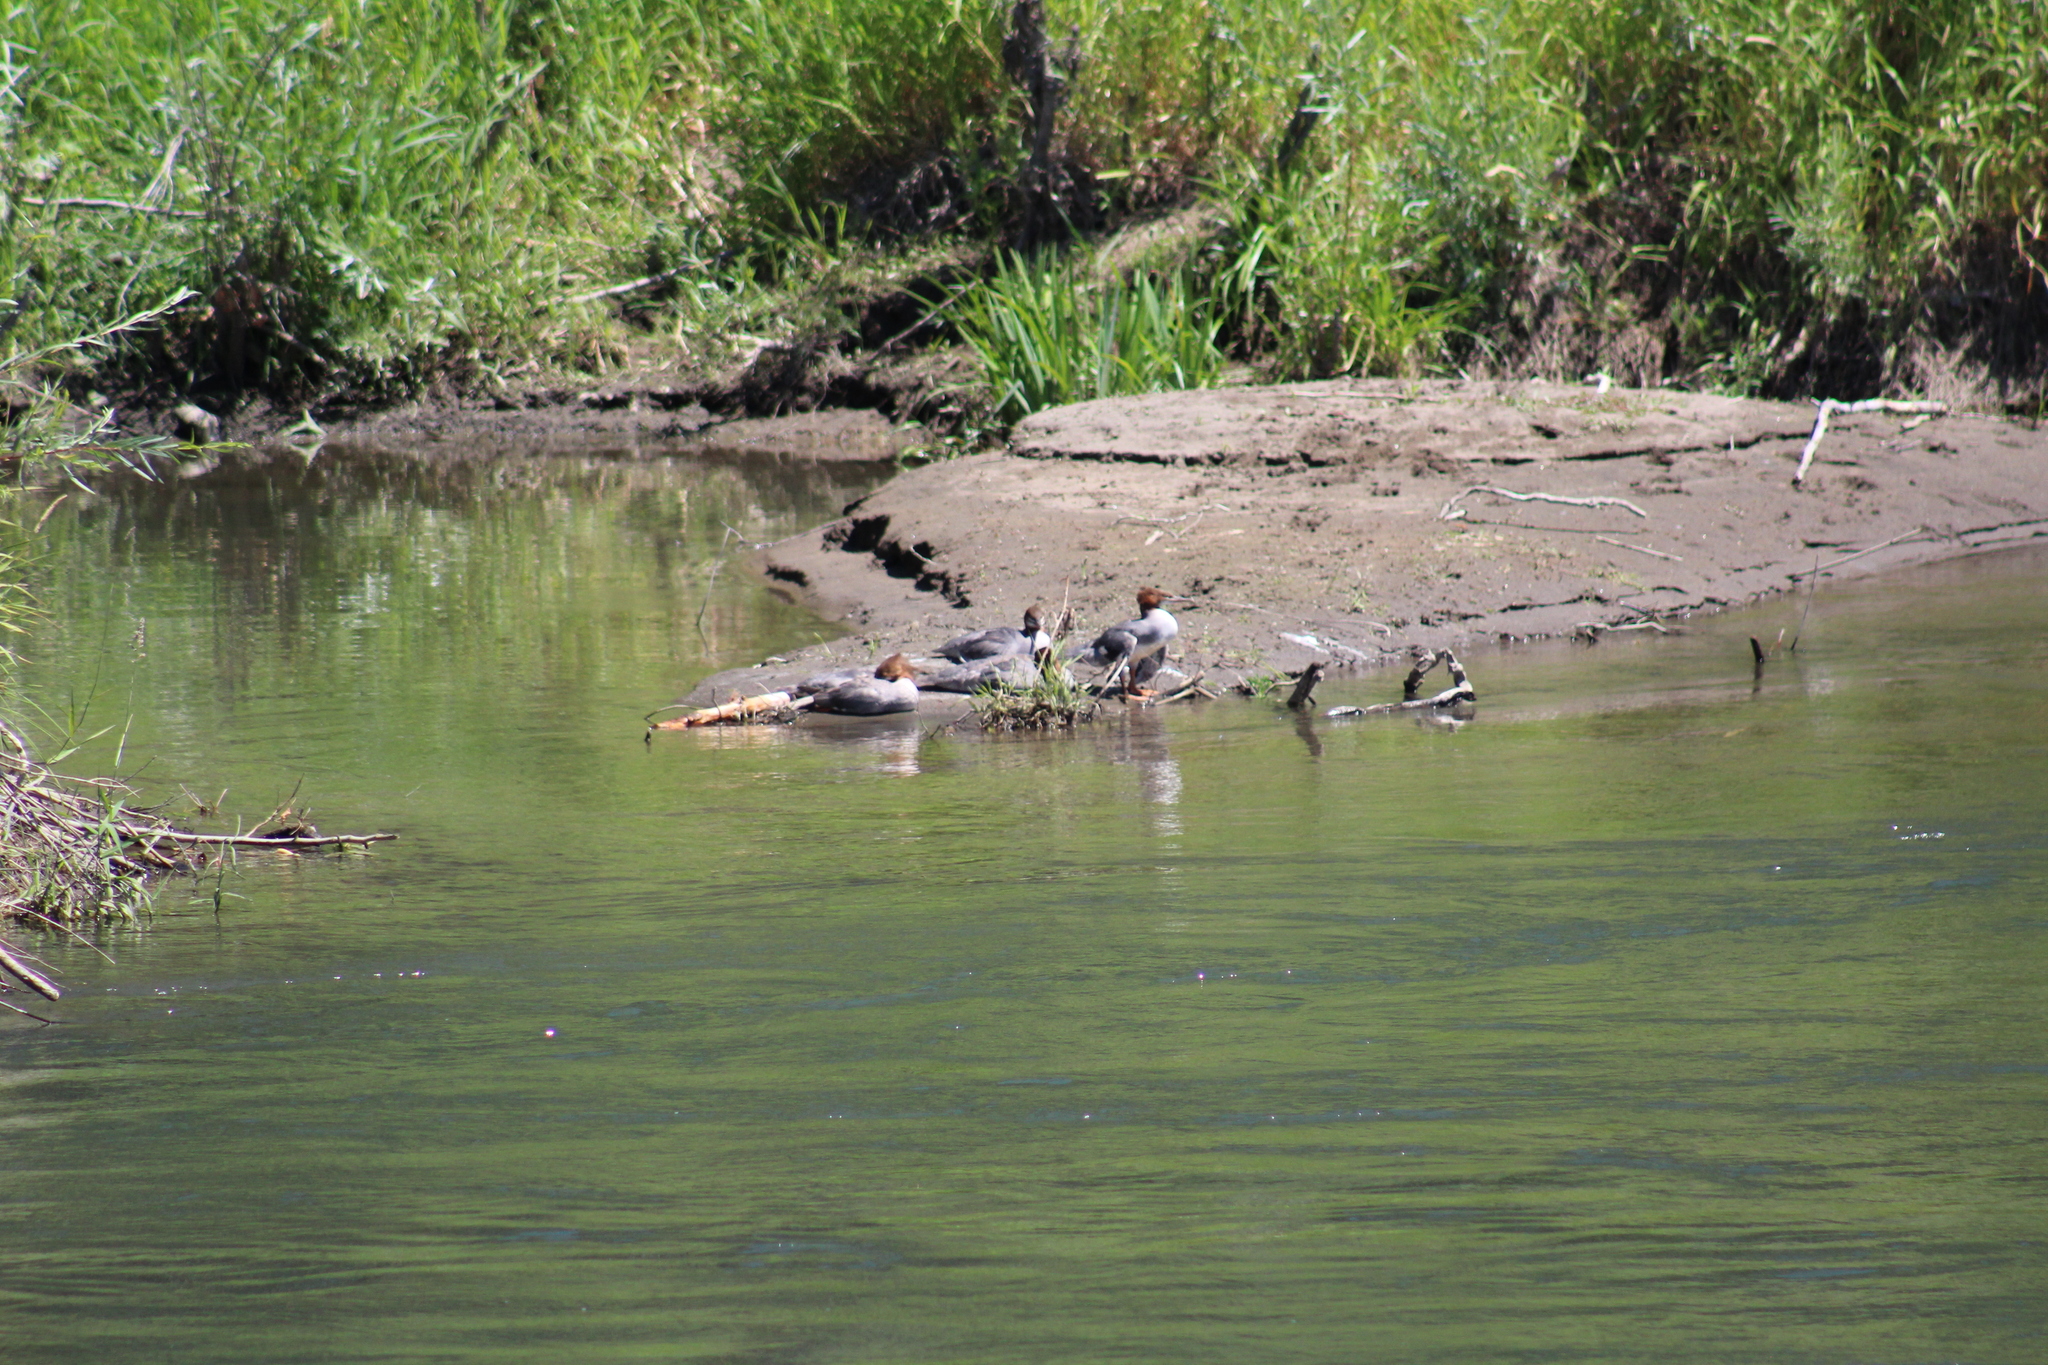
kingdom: Animalia
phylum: Chordata
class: Aves
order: Anseriformes
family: Anatidae
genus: Mergus
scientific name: Mergus merganser
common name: Common merganser
